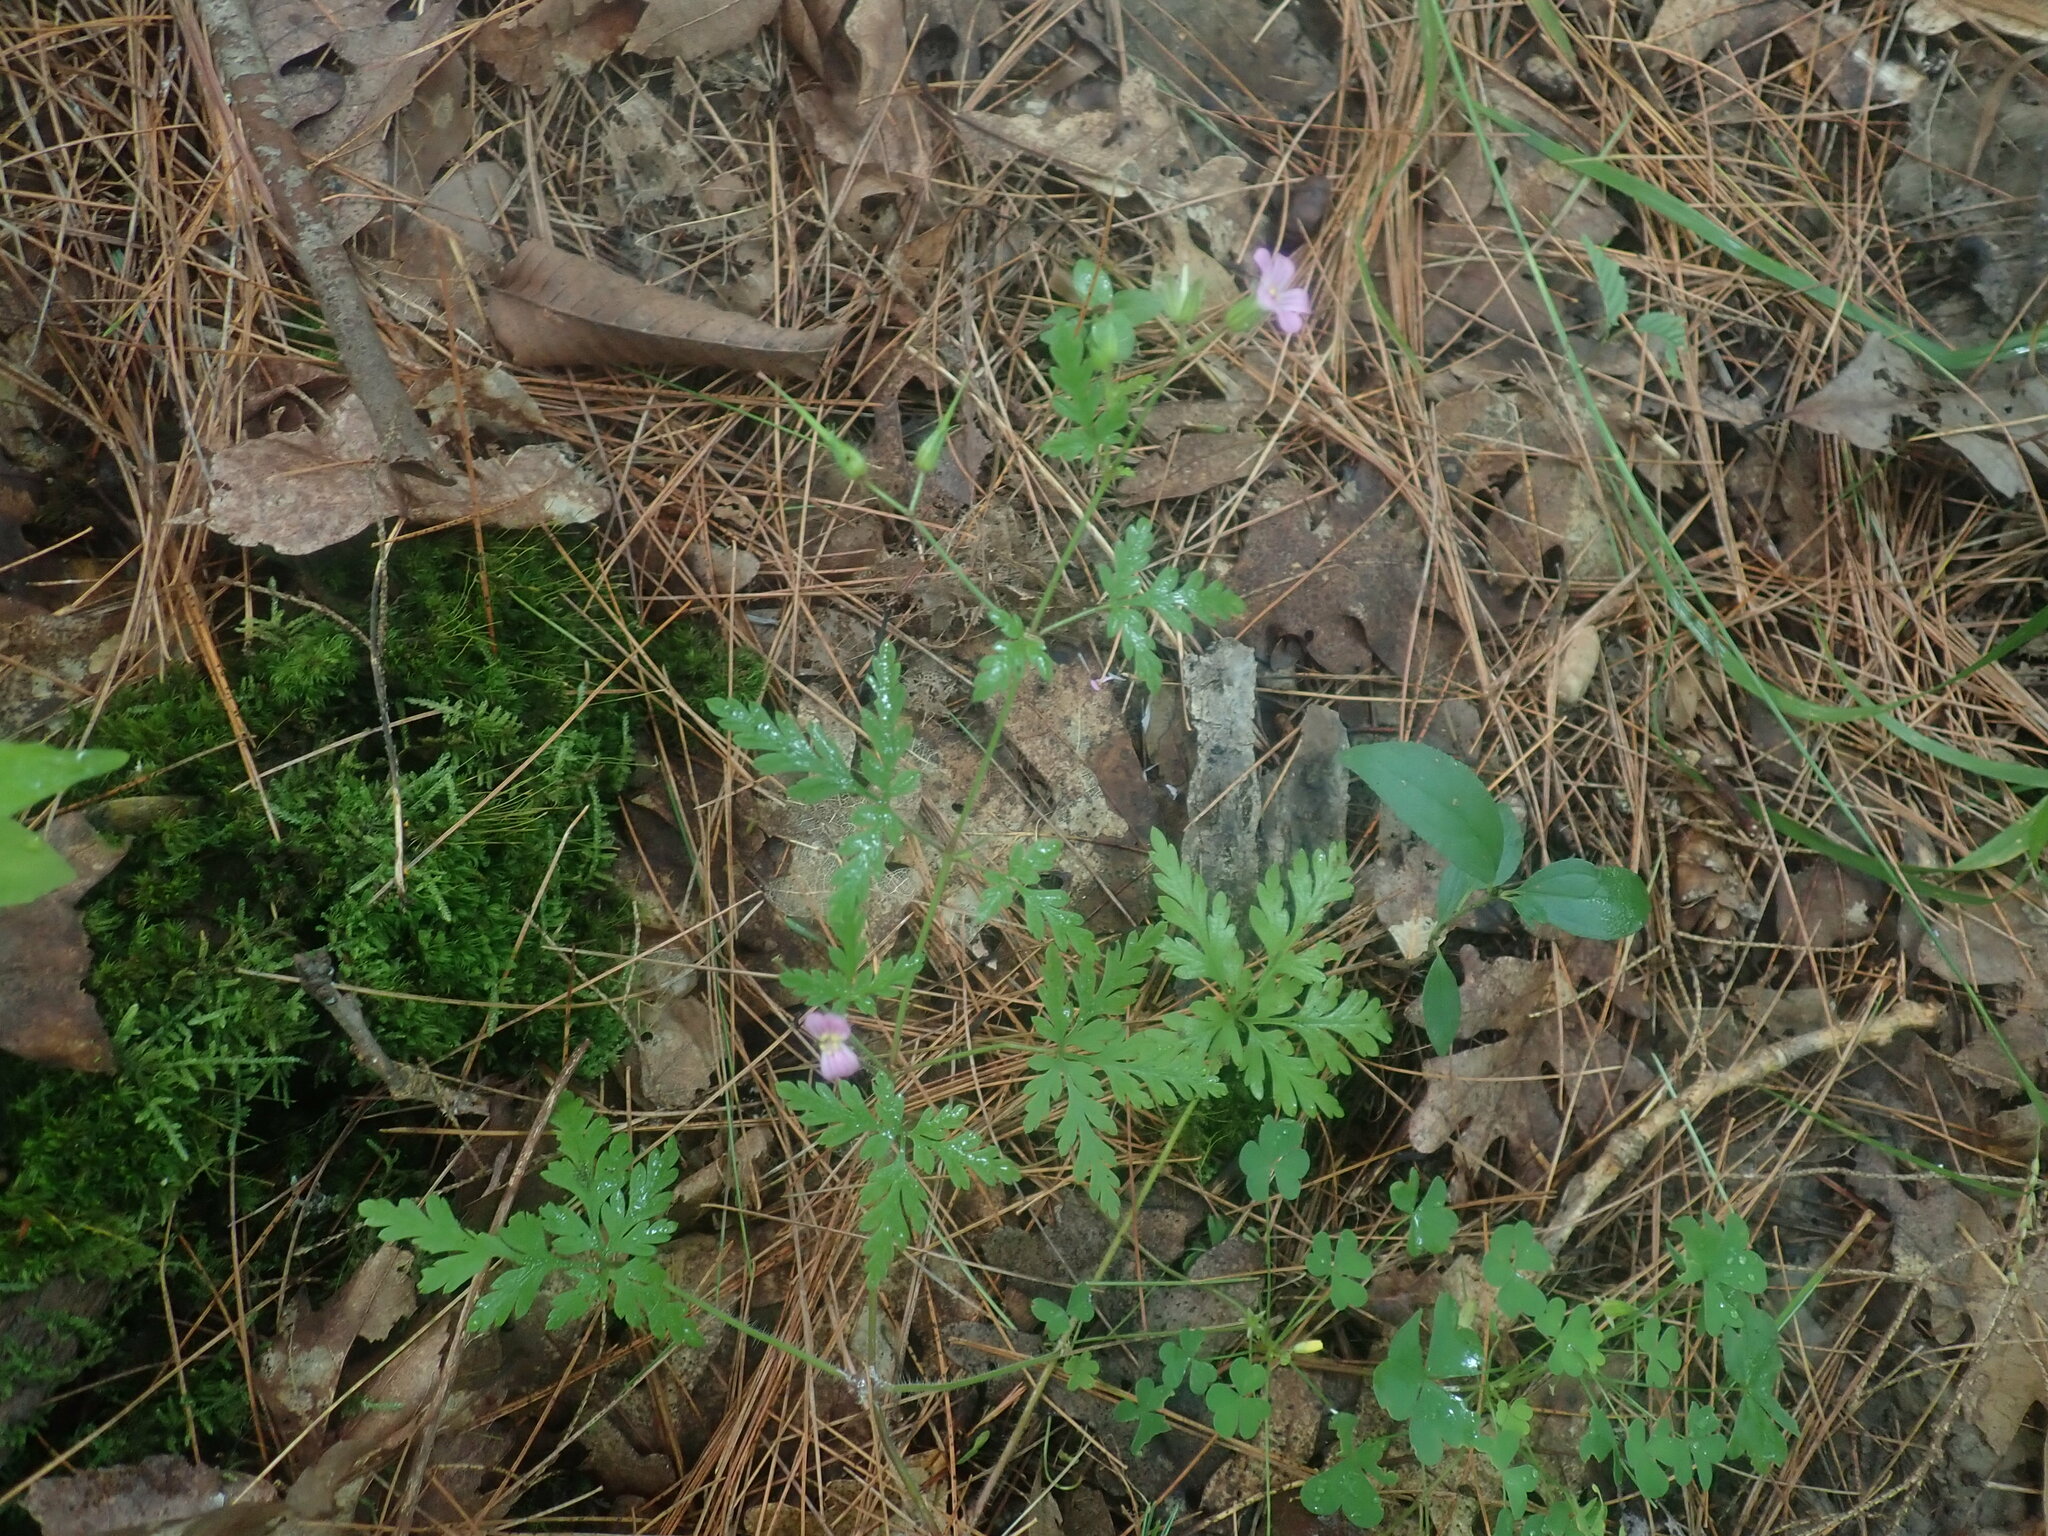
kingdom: Plantae
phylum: Tracheophyta
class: Magnoliopsida
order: Geraniales
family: Geraniaceae
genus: Geranium
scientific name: Geranium robertianum
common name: Herb-robert
